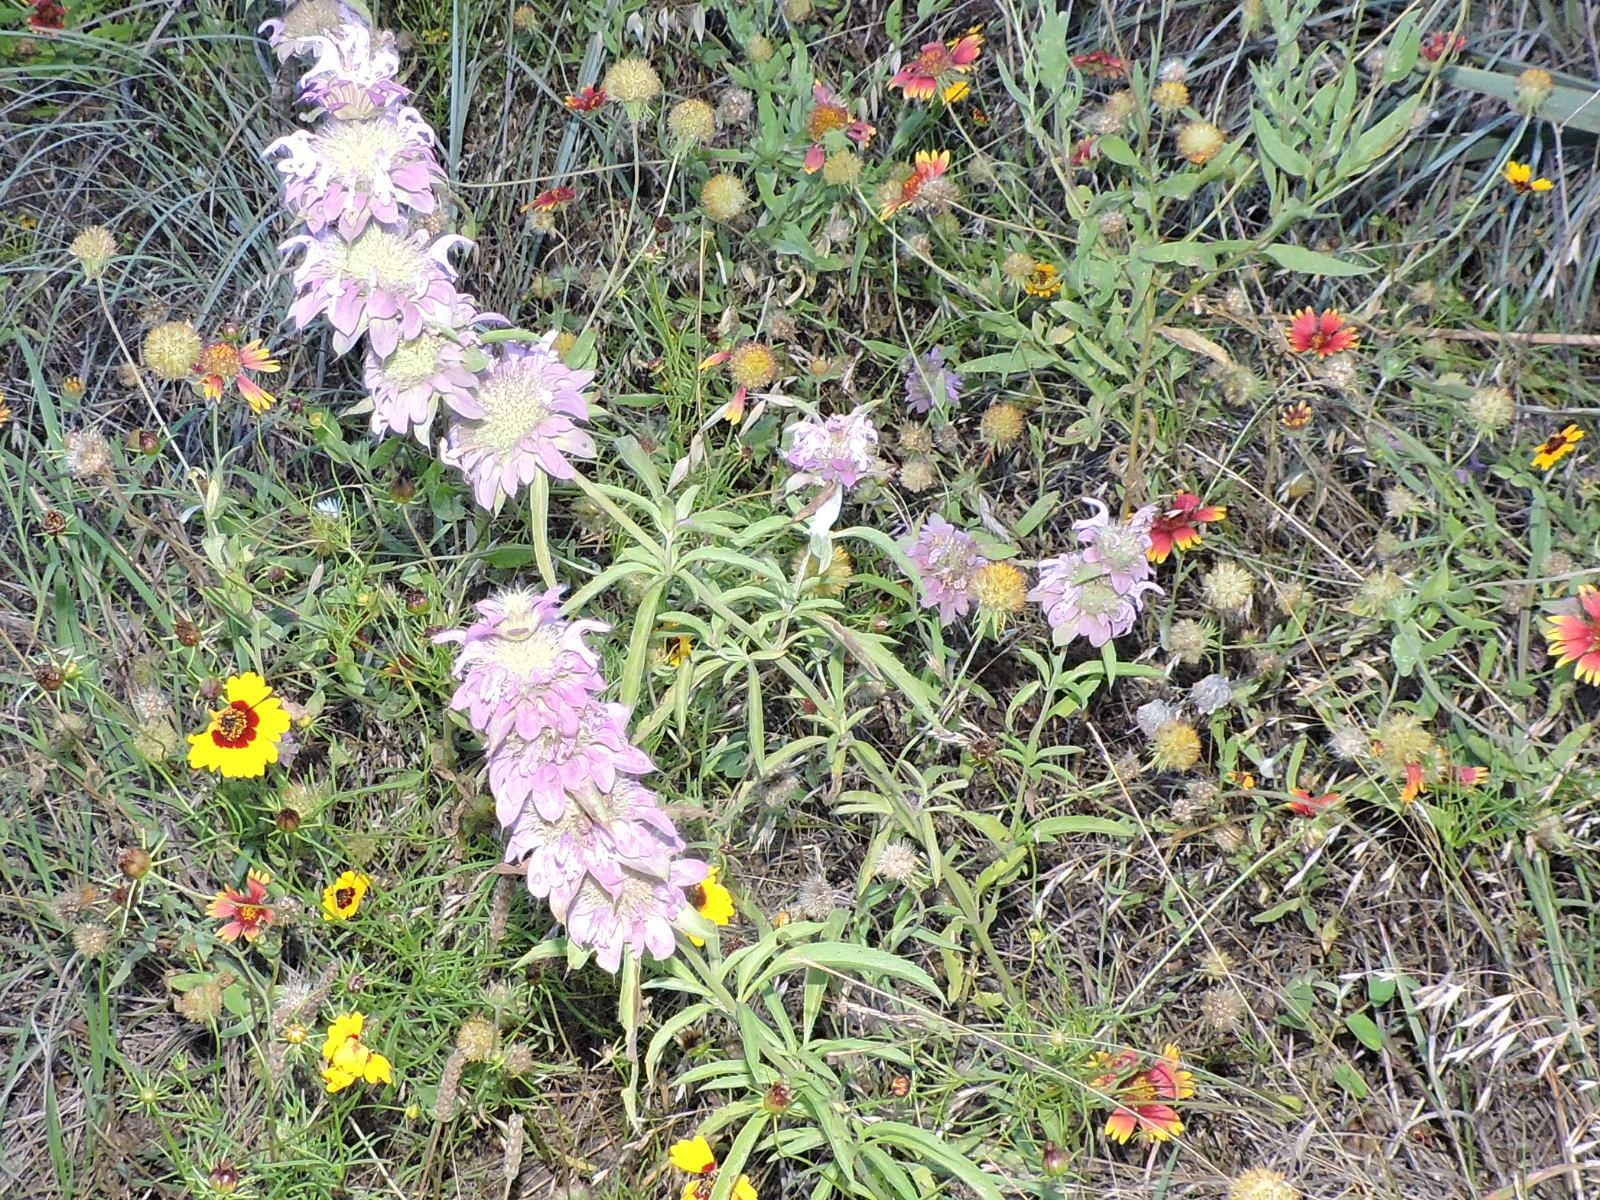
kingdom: Plantae
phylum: Tracheophyta
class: Magnoliopsida
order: Lamiales
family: Lamiaceae
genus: Monarda
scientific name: Monarda citriodora
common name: Lemon beebalm
